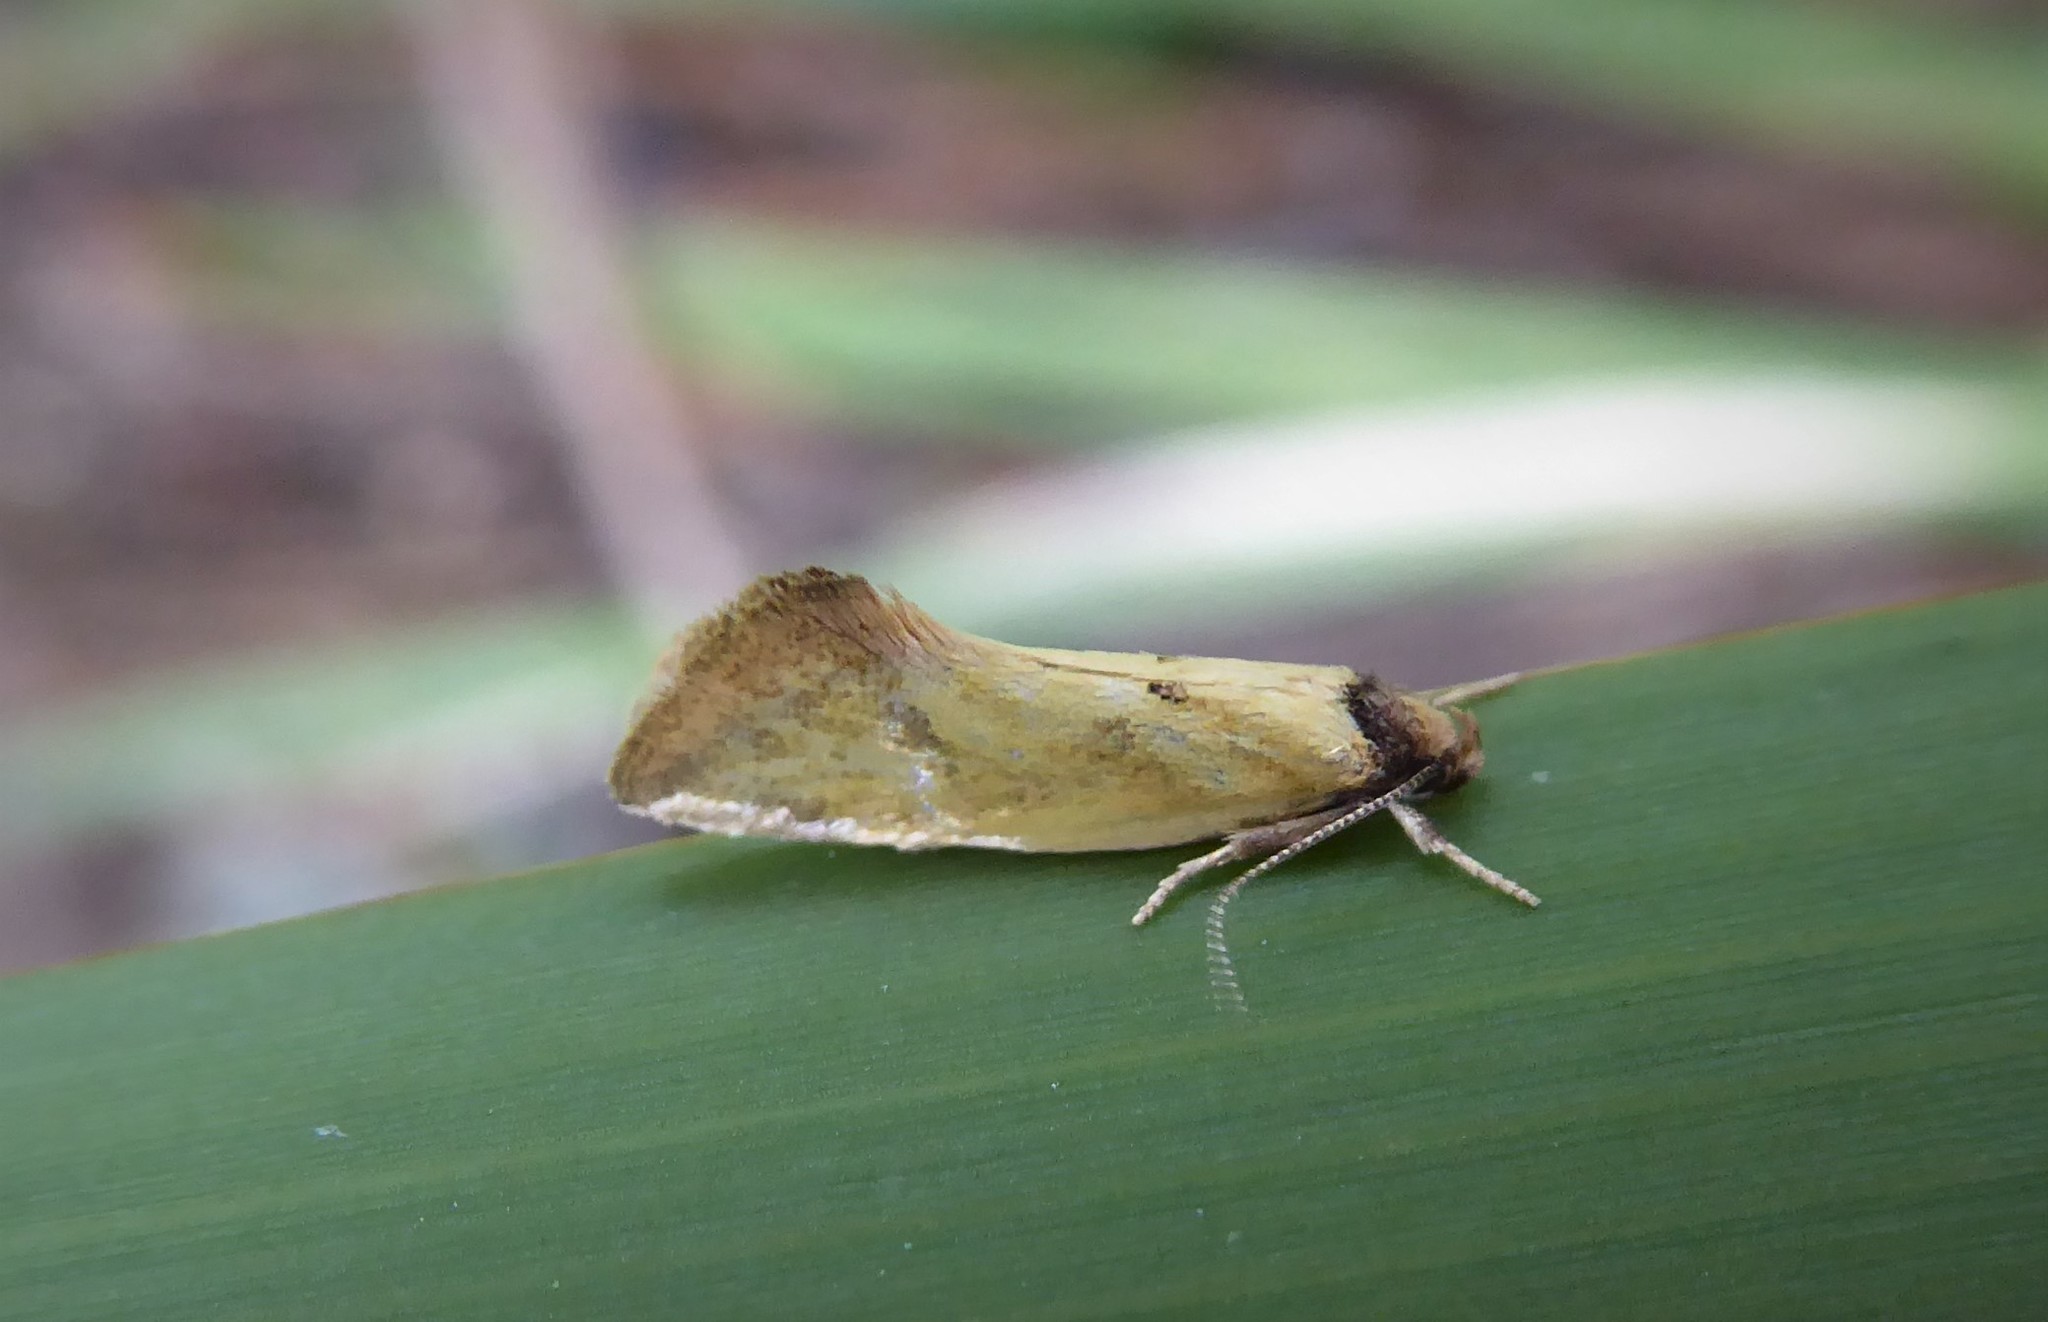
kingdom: Animalia
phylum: Arthropoda
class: Insecta
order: Lepidoptera
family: Oecophoridae
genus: Tingena
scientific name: Tingena melinella
